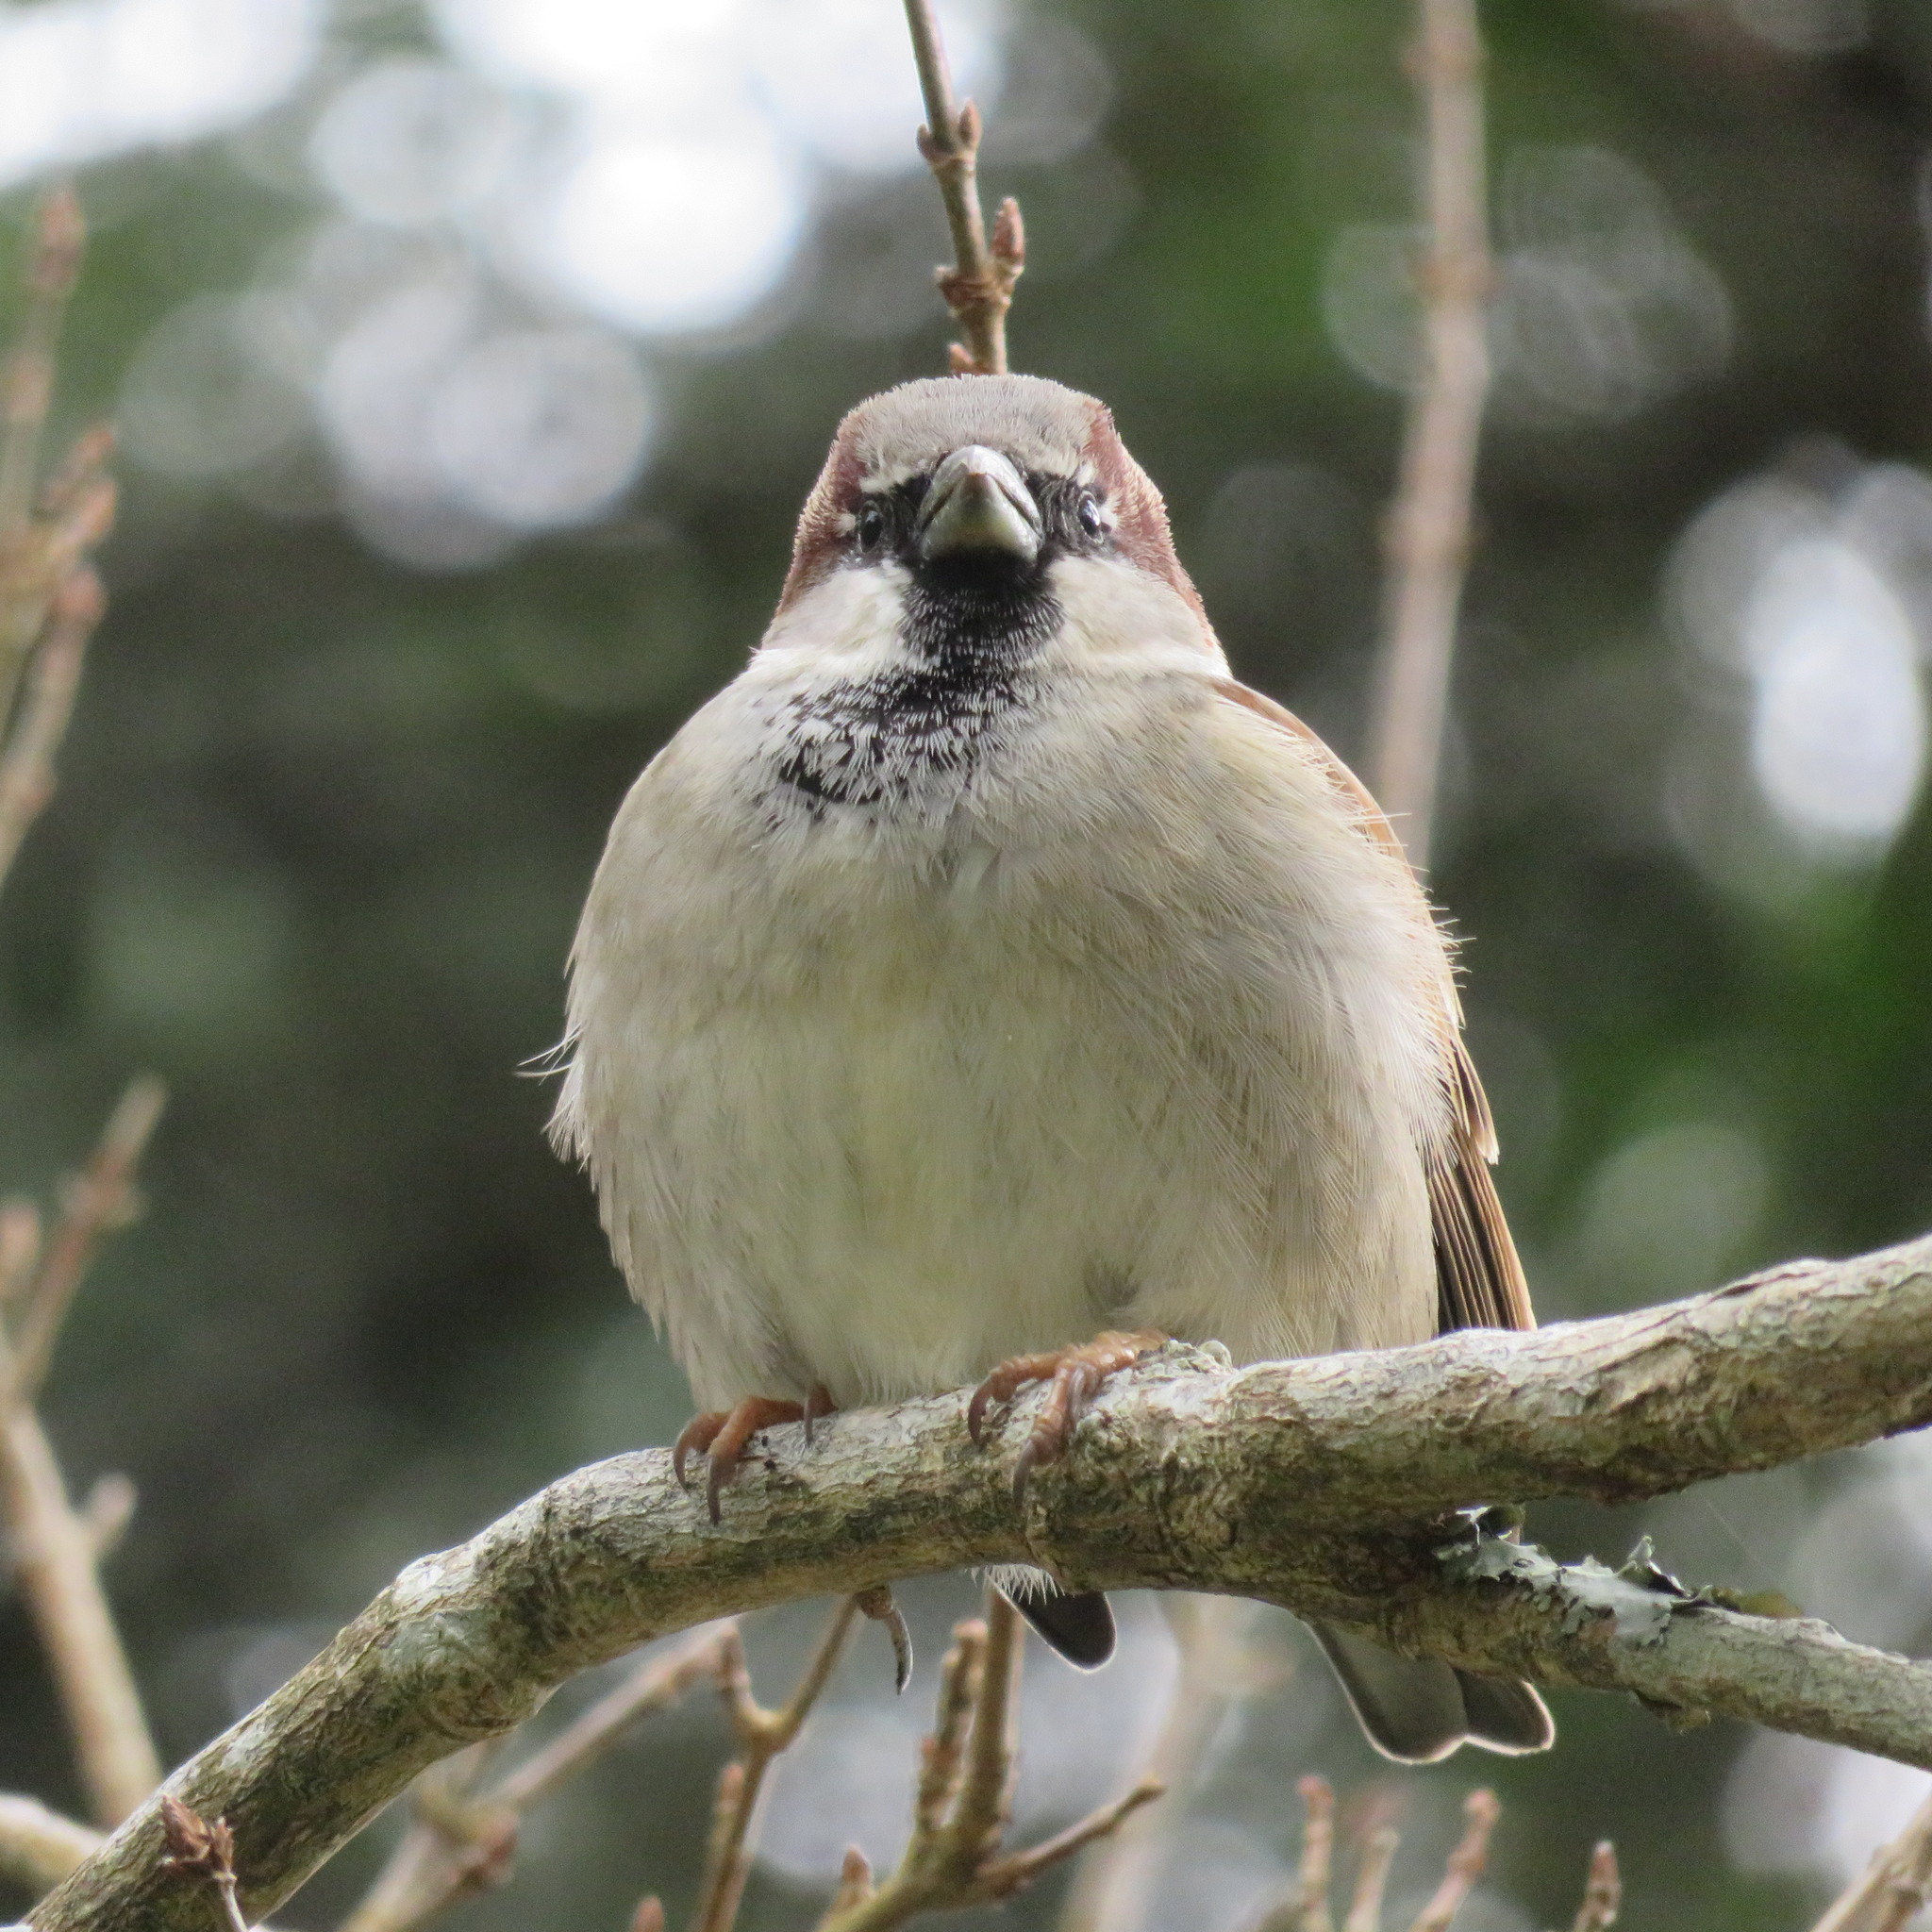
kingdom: Animalia
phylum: Chordata
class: Aves
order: Passeriformes
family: Passeridae
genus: Passer
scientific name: Passer domesticus
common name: House sparrow
